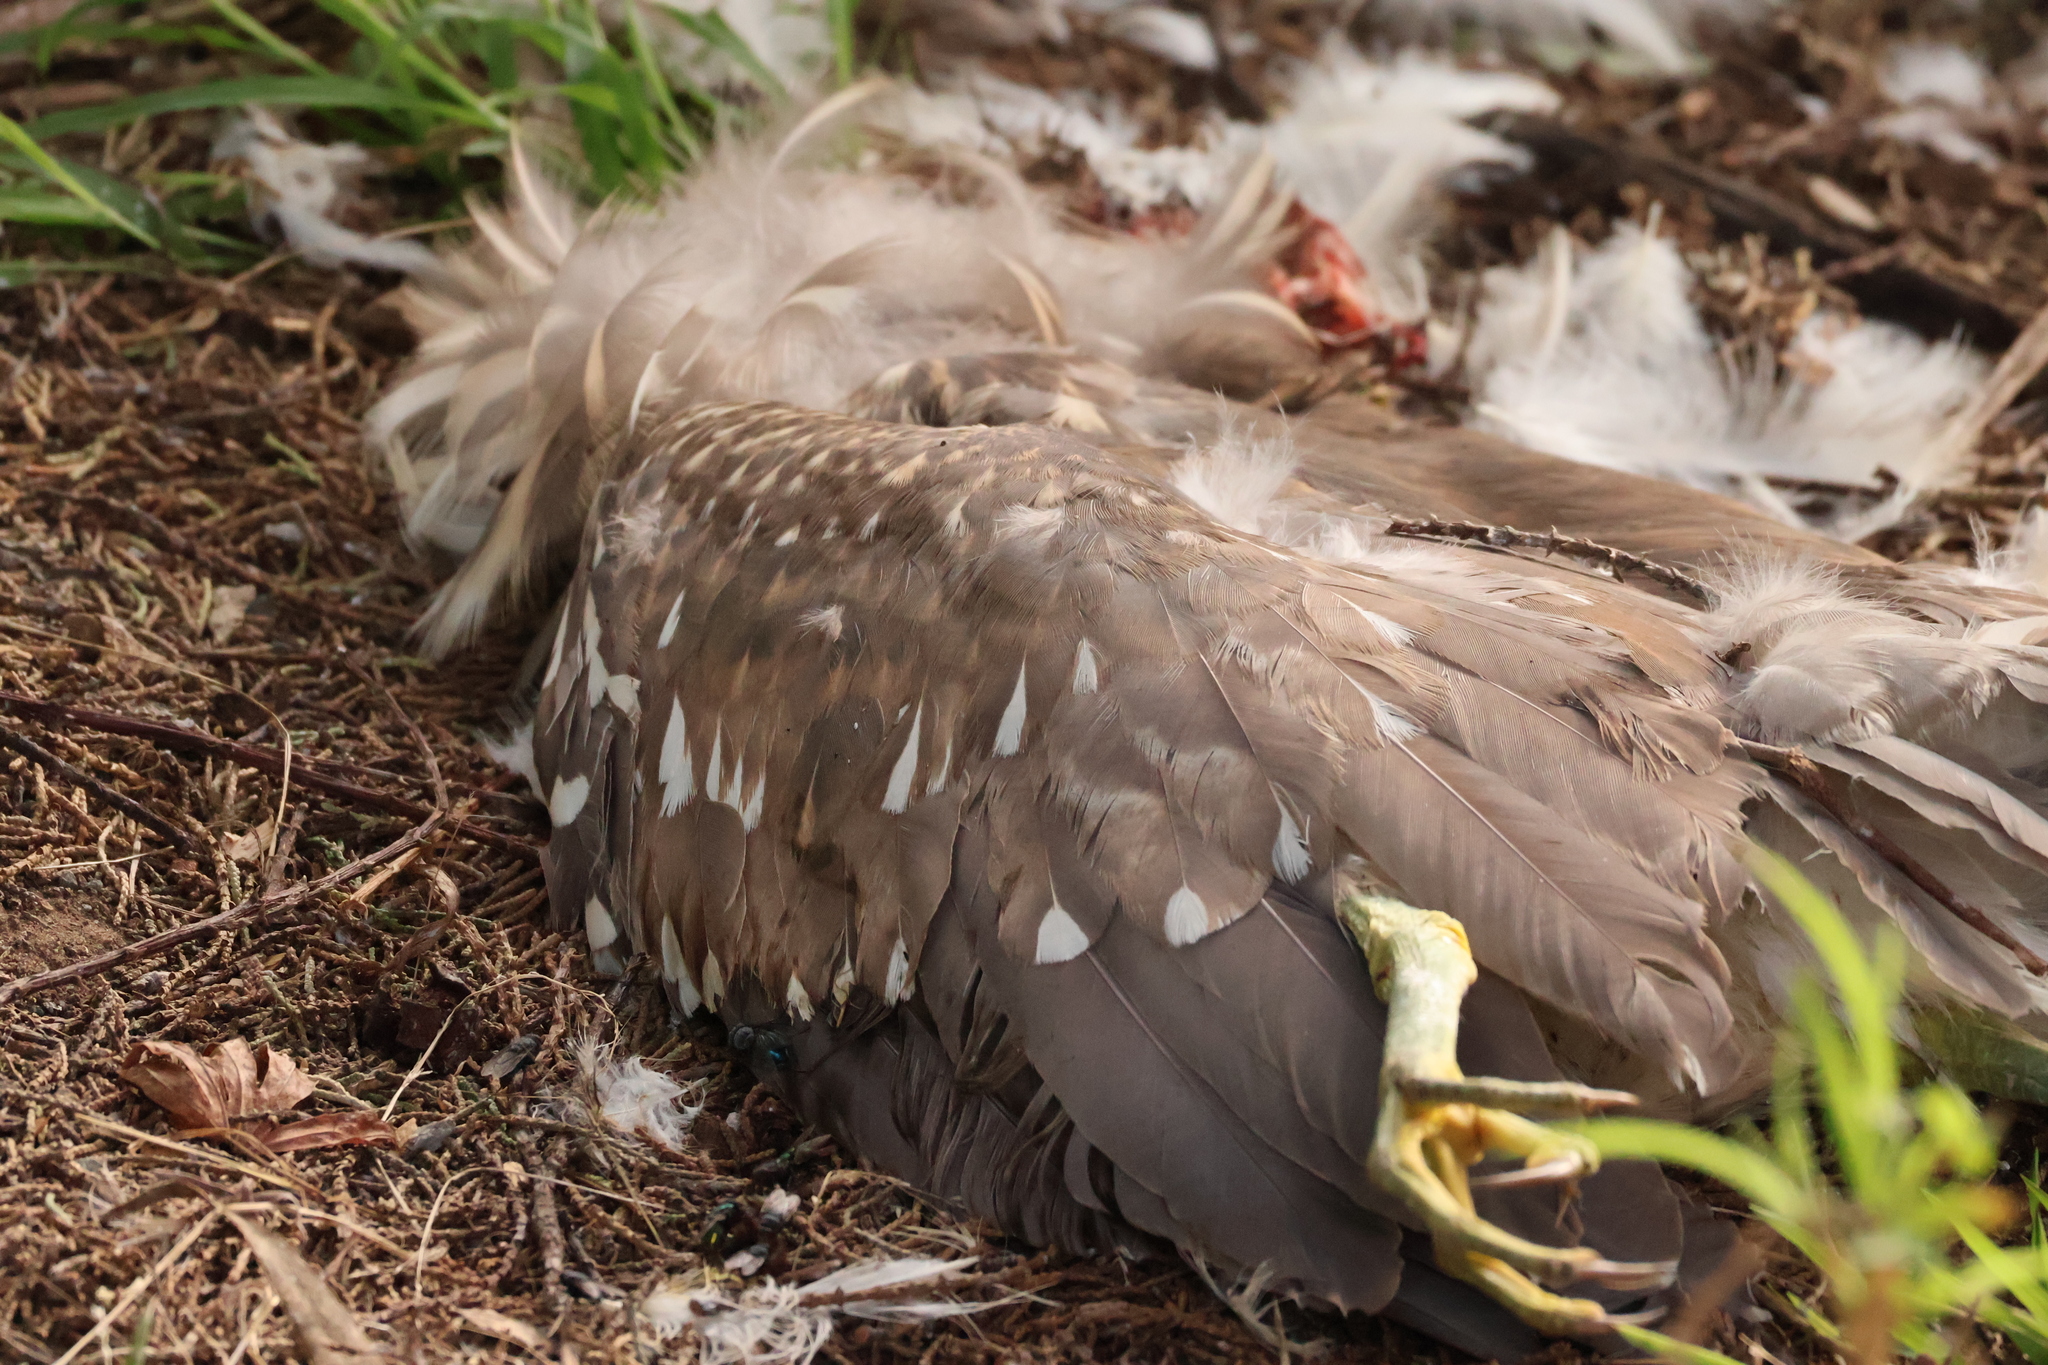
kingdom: Animalia
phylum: Chordata
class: Aves
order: Pelecaniformes
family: Ardeidae
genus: Nycticorax
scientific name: Nycticorax nycticorax
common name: Black-crowned night heron
